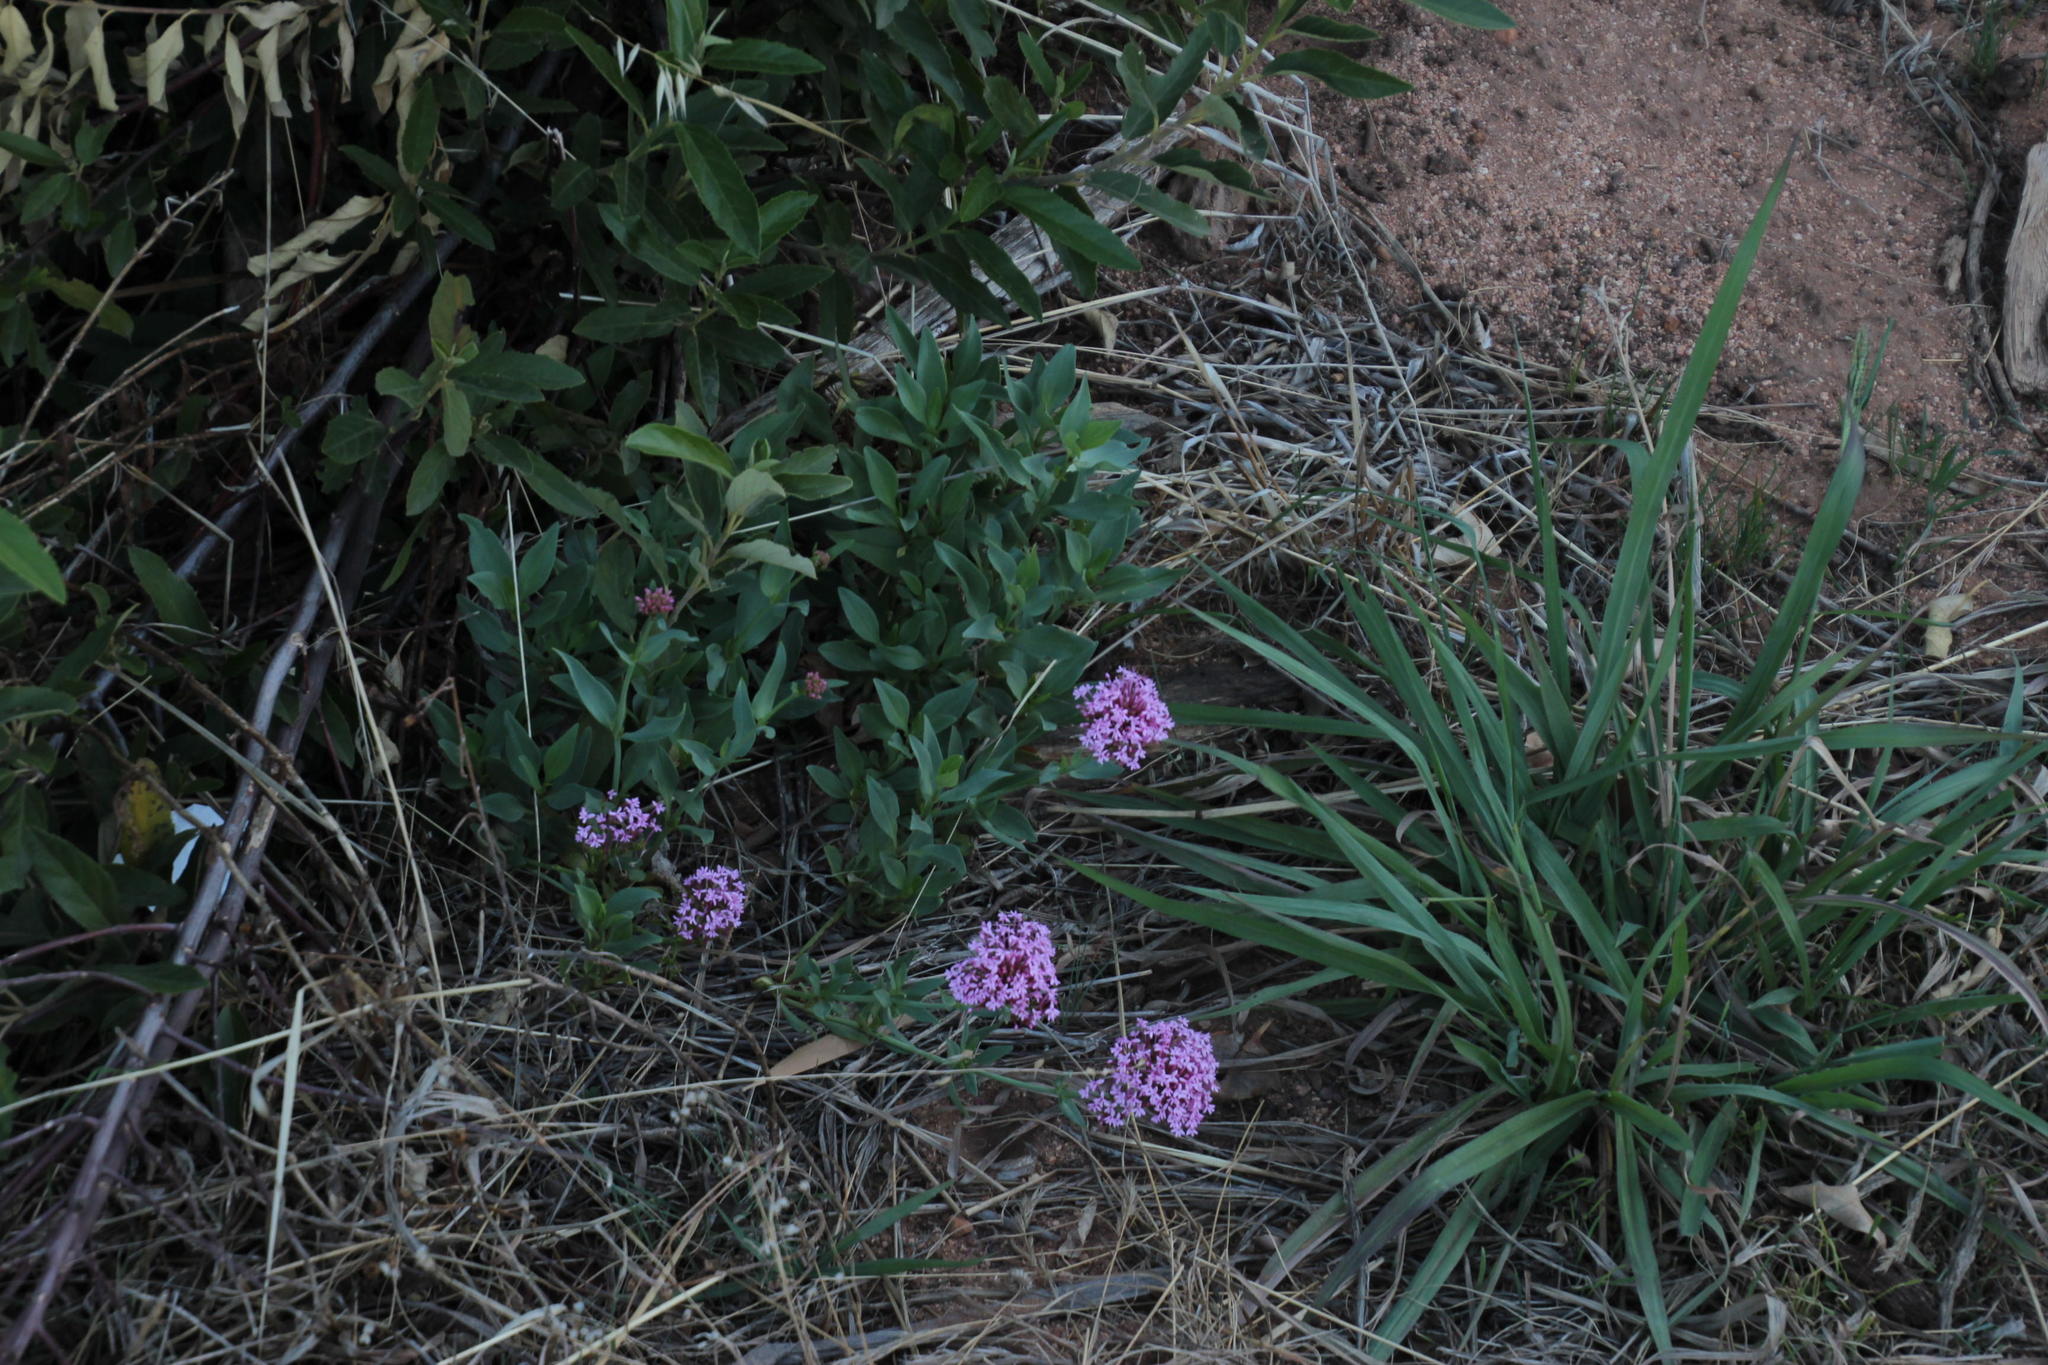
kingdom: Plantae
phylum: Tracheophyta
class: Magnoliopsida
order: Dipsacales
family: Caprifoliaceae
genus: Centranthus
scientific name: Centranthus ruber
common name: Red valerian
